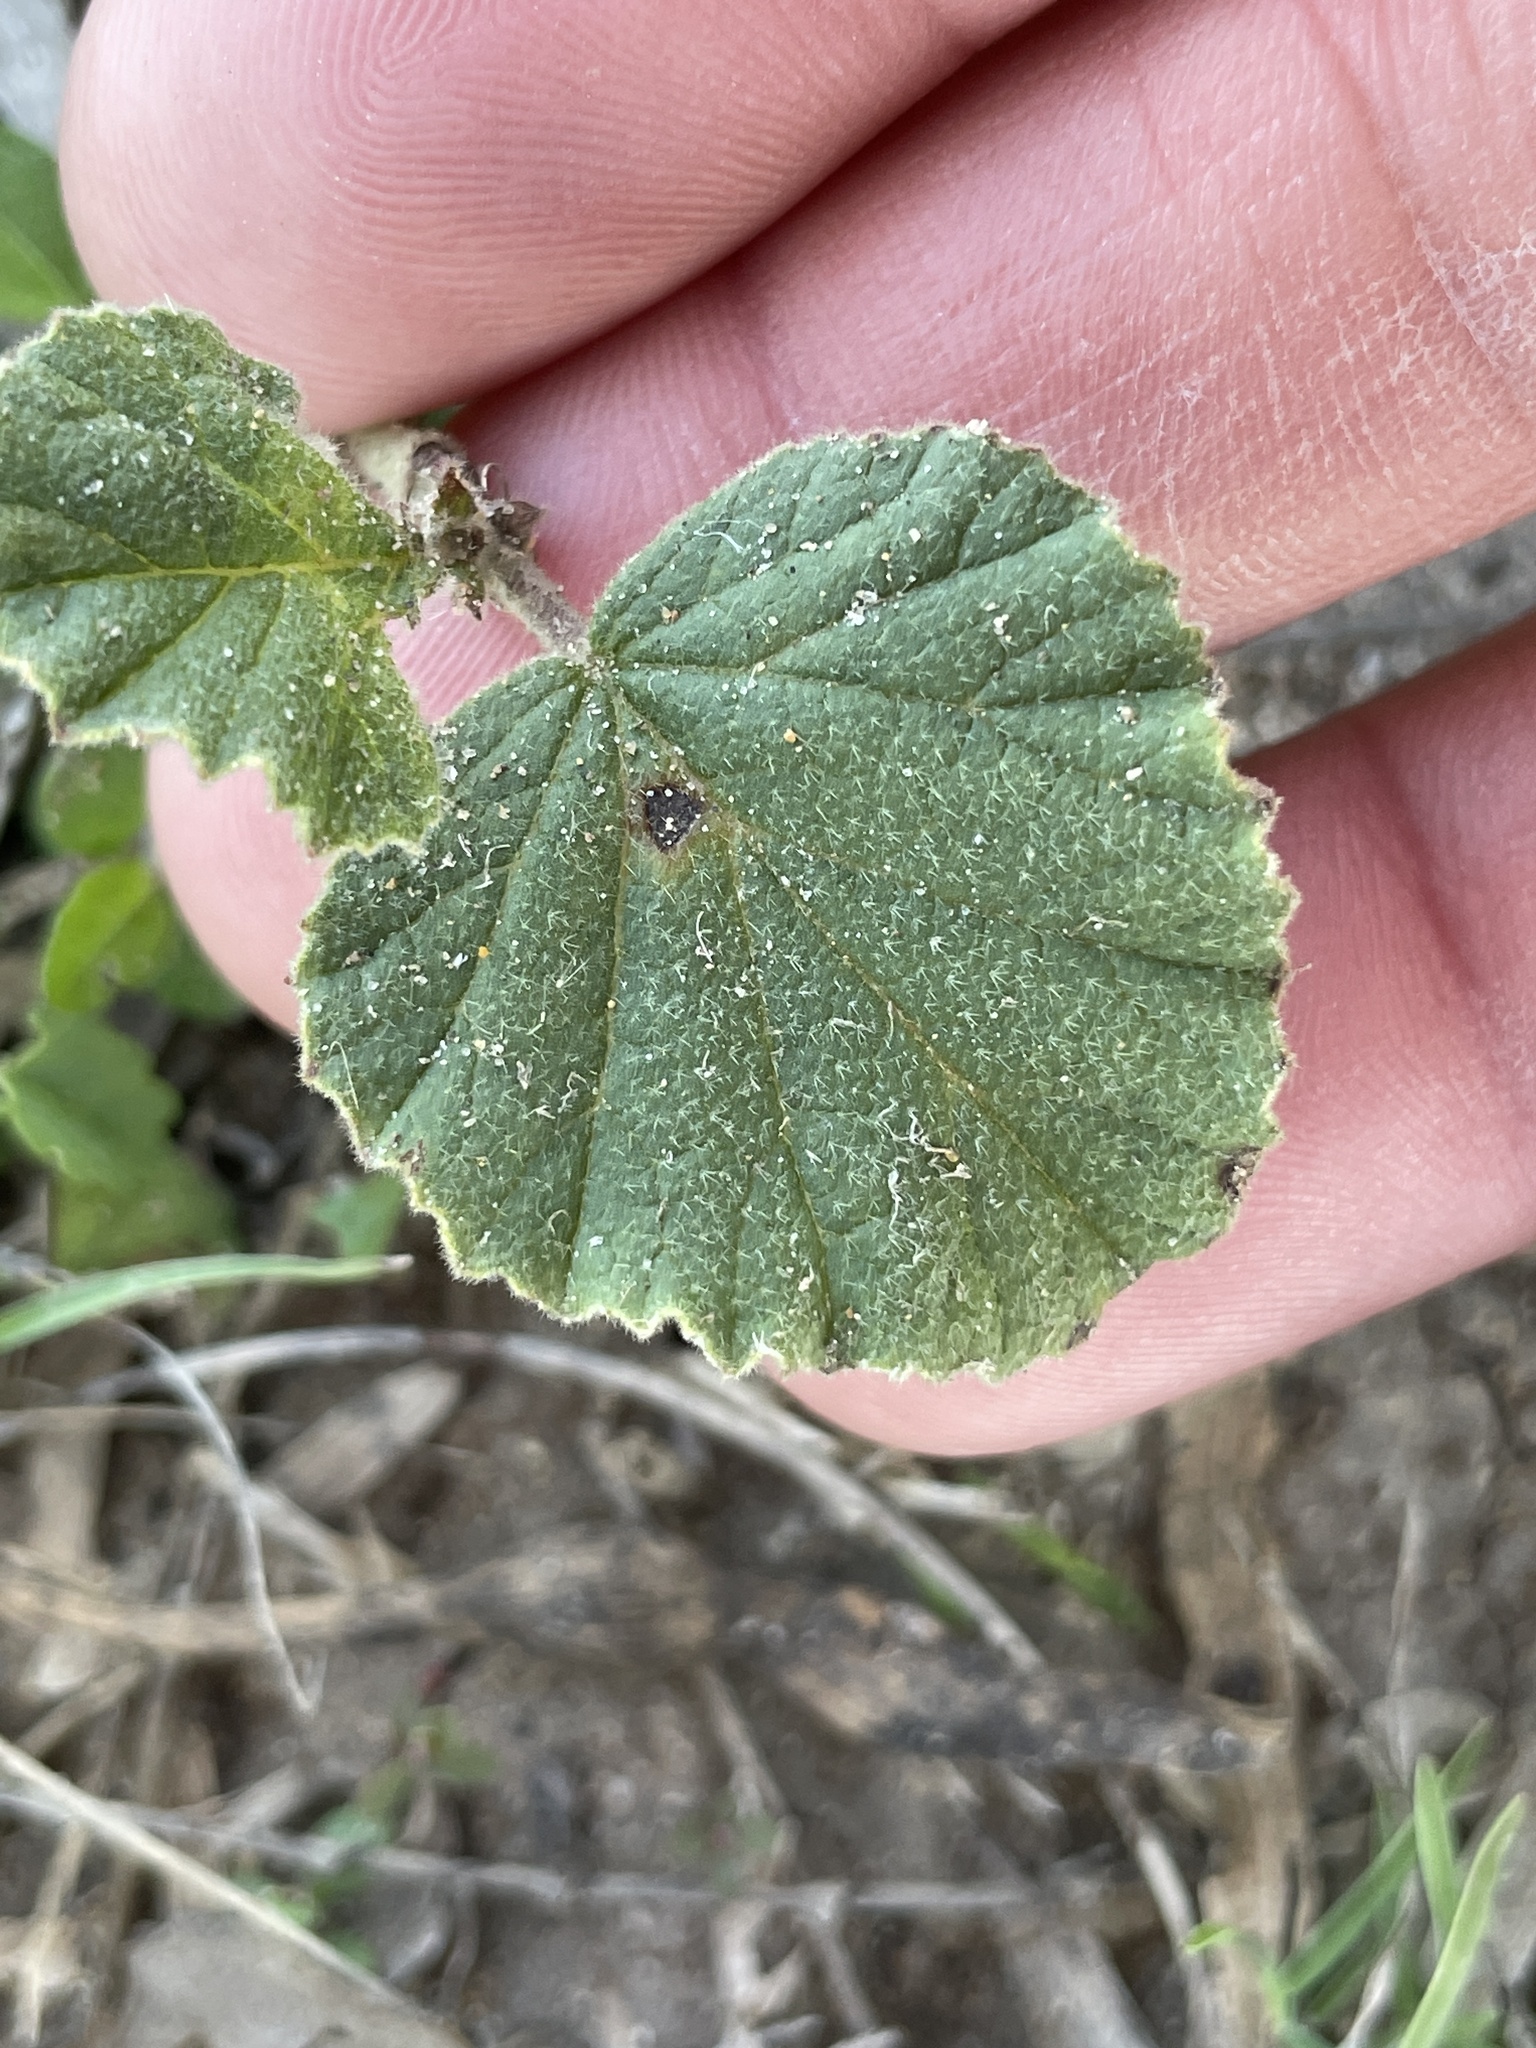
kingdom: Plantae
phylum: Tracheophyta
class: Magnoliopsida
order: Malvales
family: Malvaceae
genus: Hermannia
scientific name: Hermannia texana
